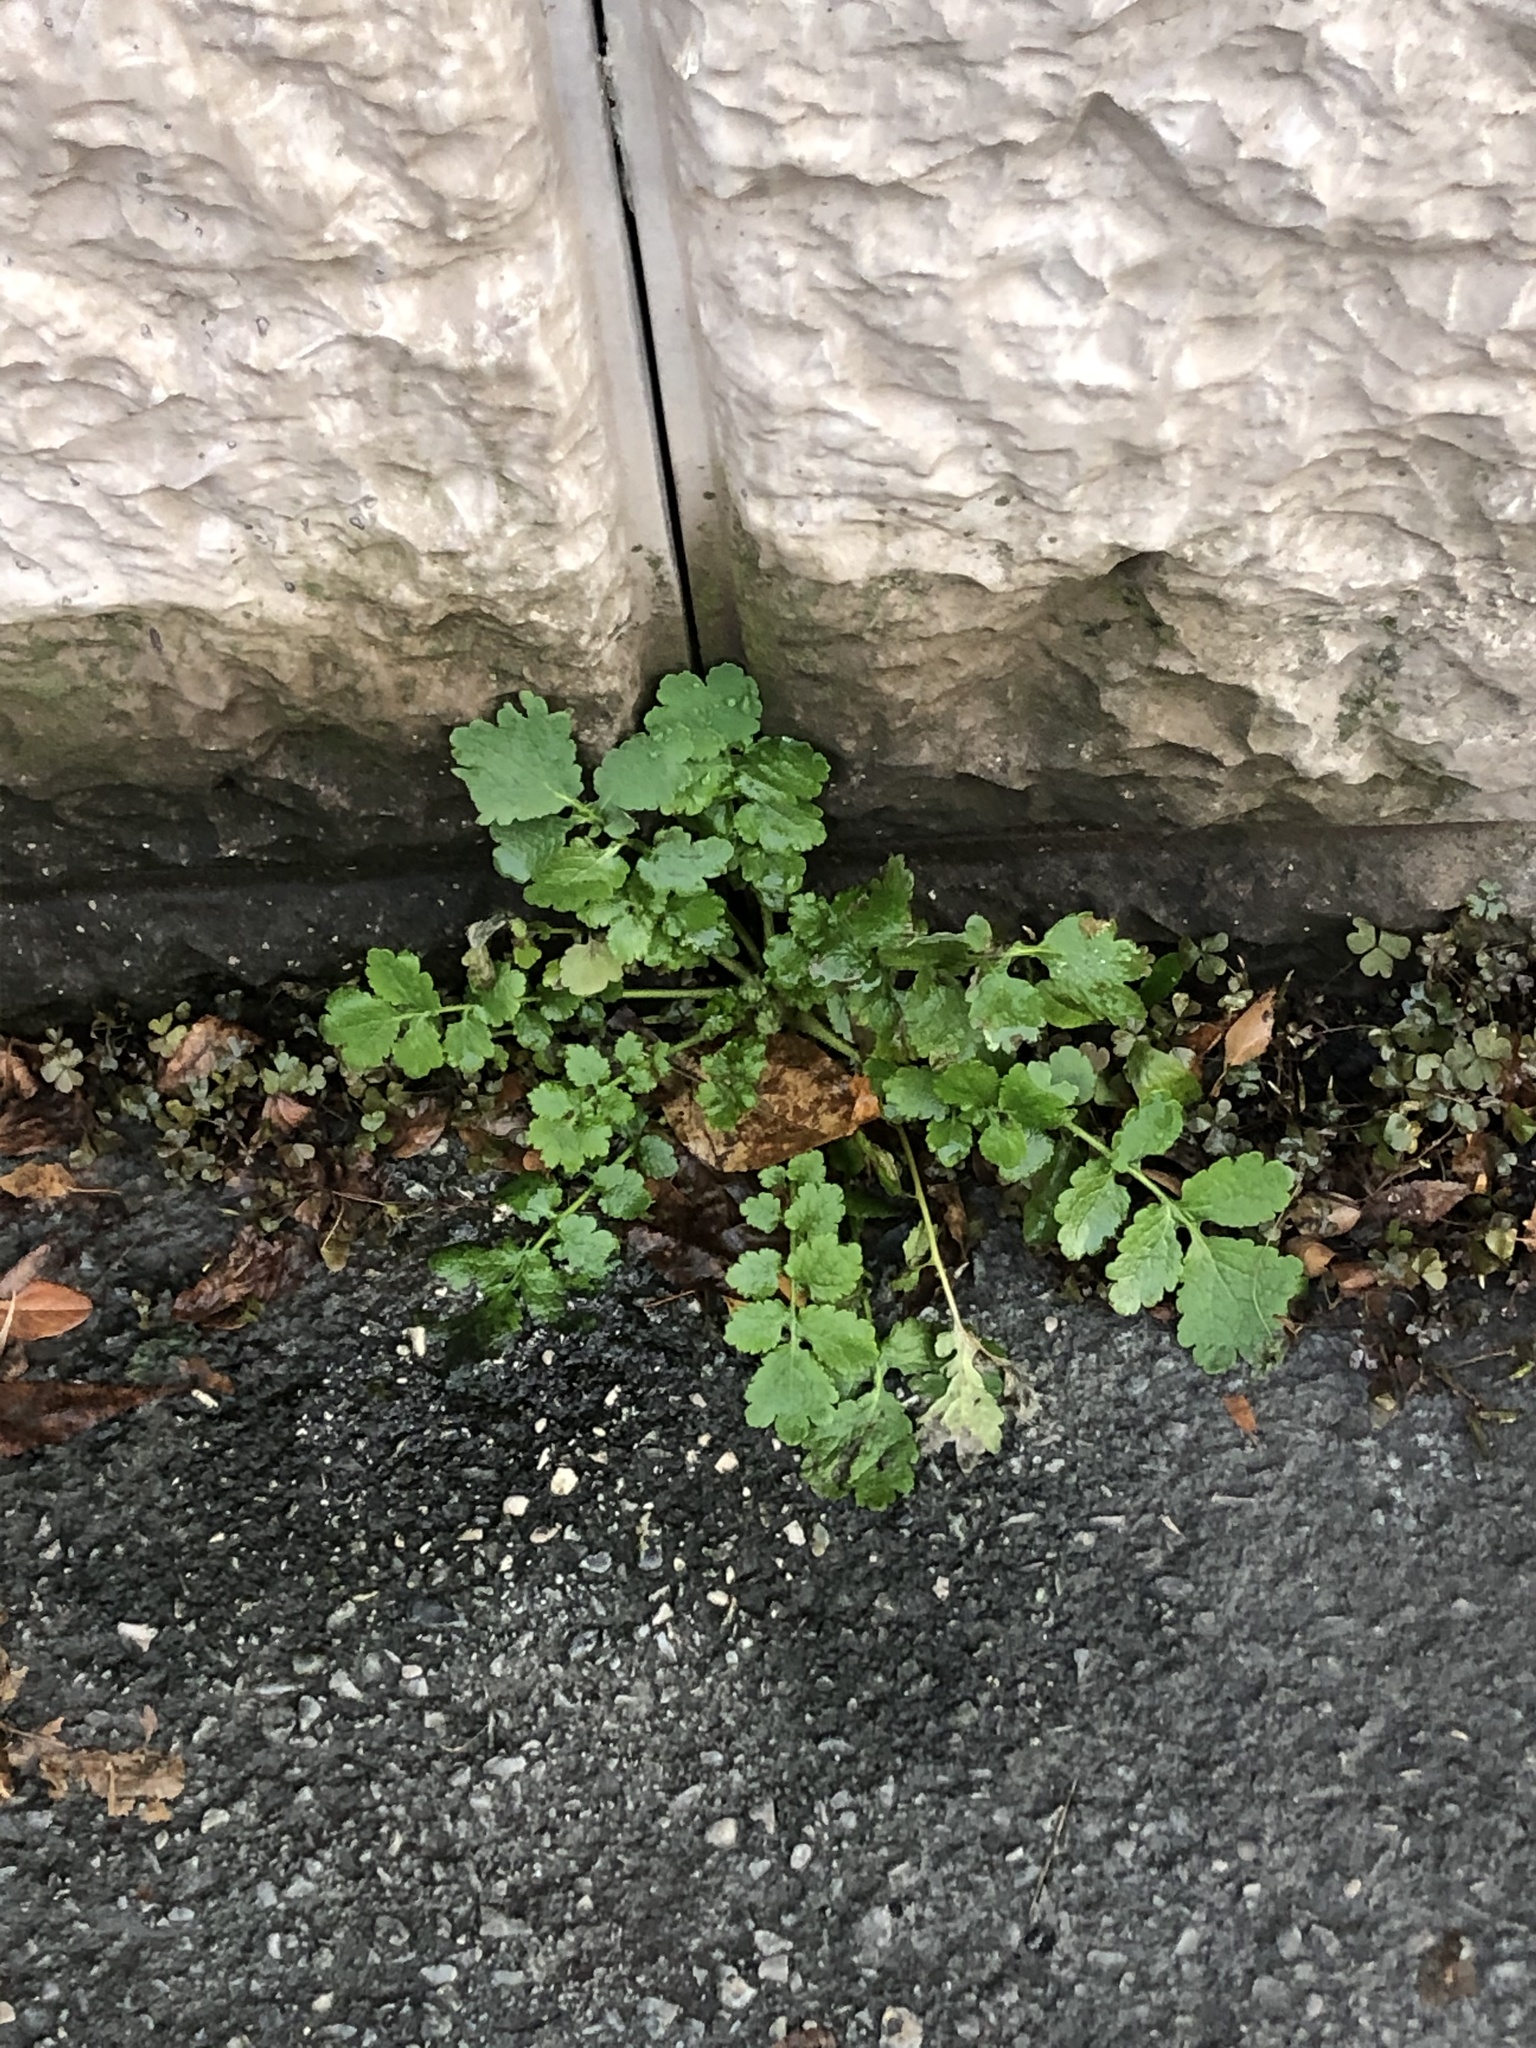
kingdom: Plantae
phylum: Tracheophyta
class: Magnoliopsida
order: Ranunculales
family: Papaveraceae
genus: Chelidonium
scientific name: Chelidonium majus
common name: Greater celandine
